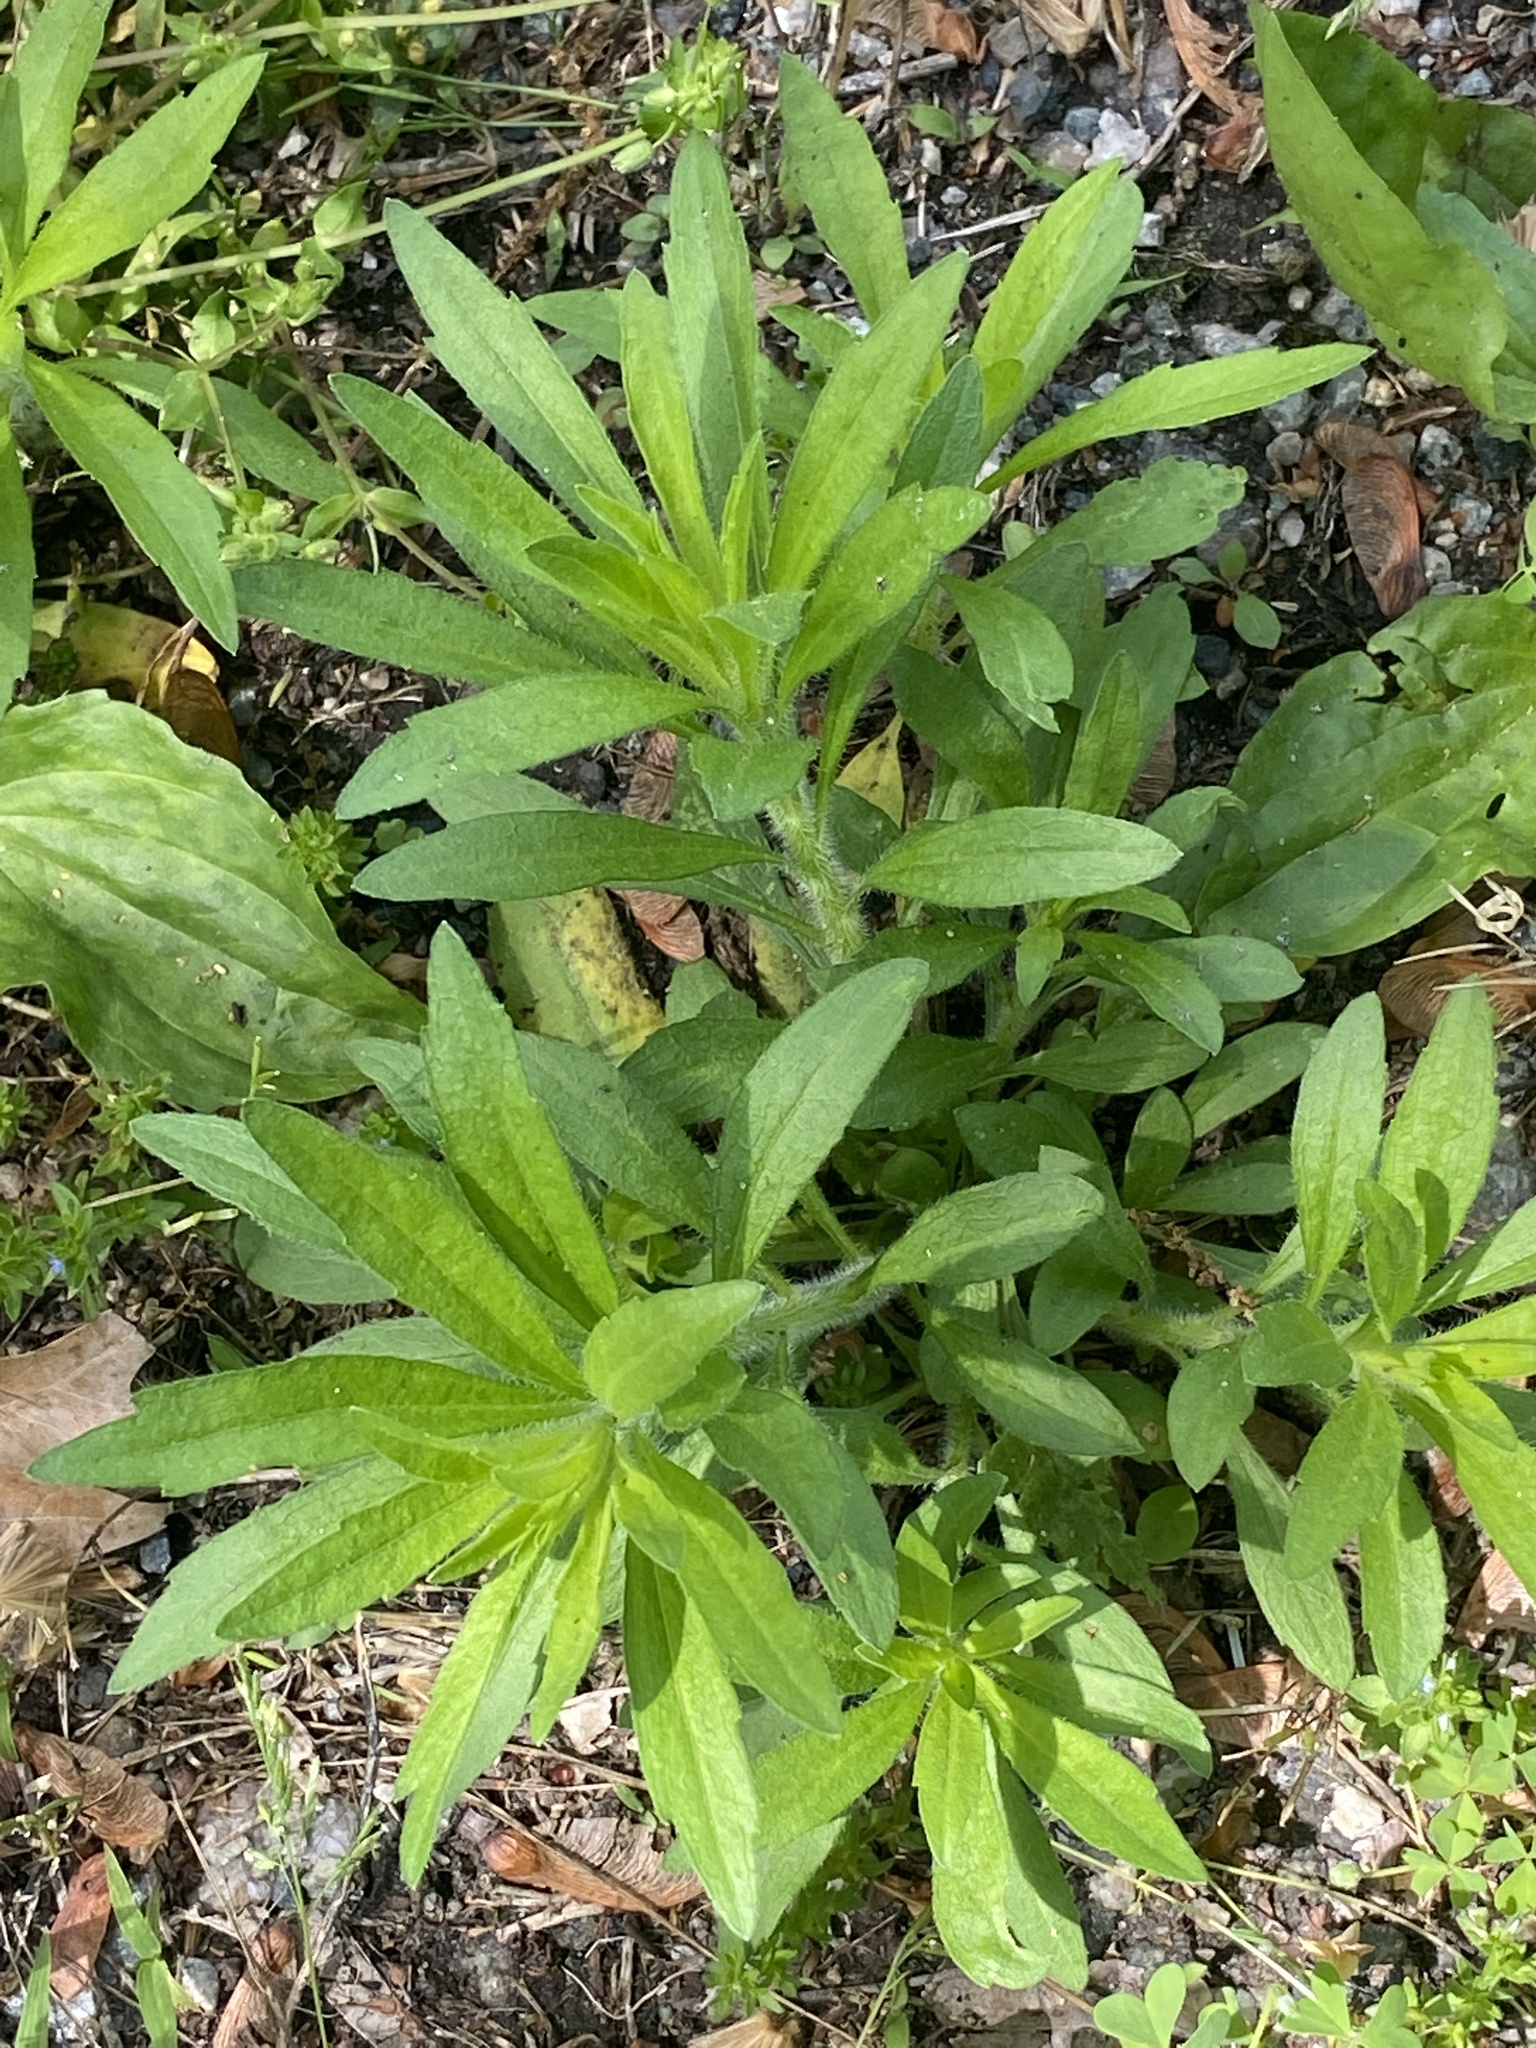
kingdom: Plantae
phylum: Tracheophyta
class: Magnoliopsida
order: Asterales
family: Asteraceae
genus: Erigeron
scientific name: Erigeron canadensis
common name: Canadian fleabane
